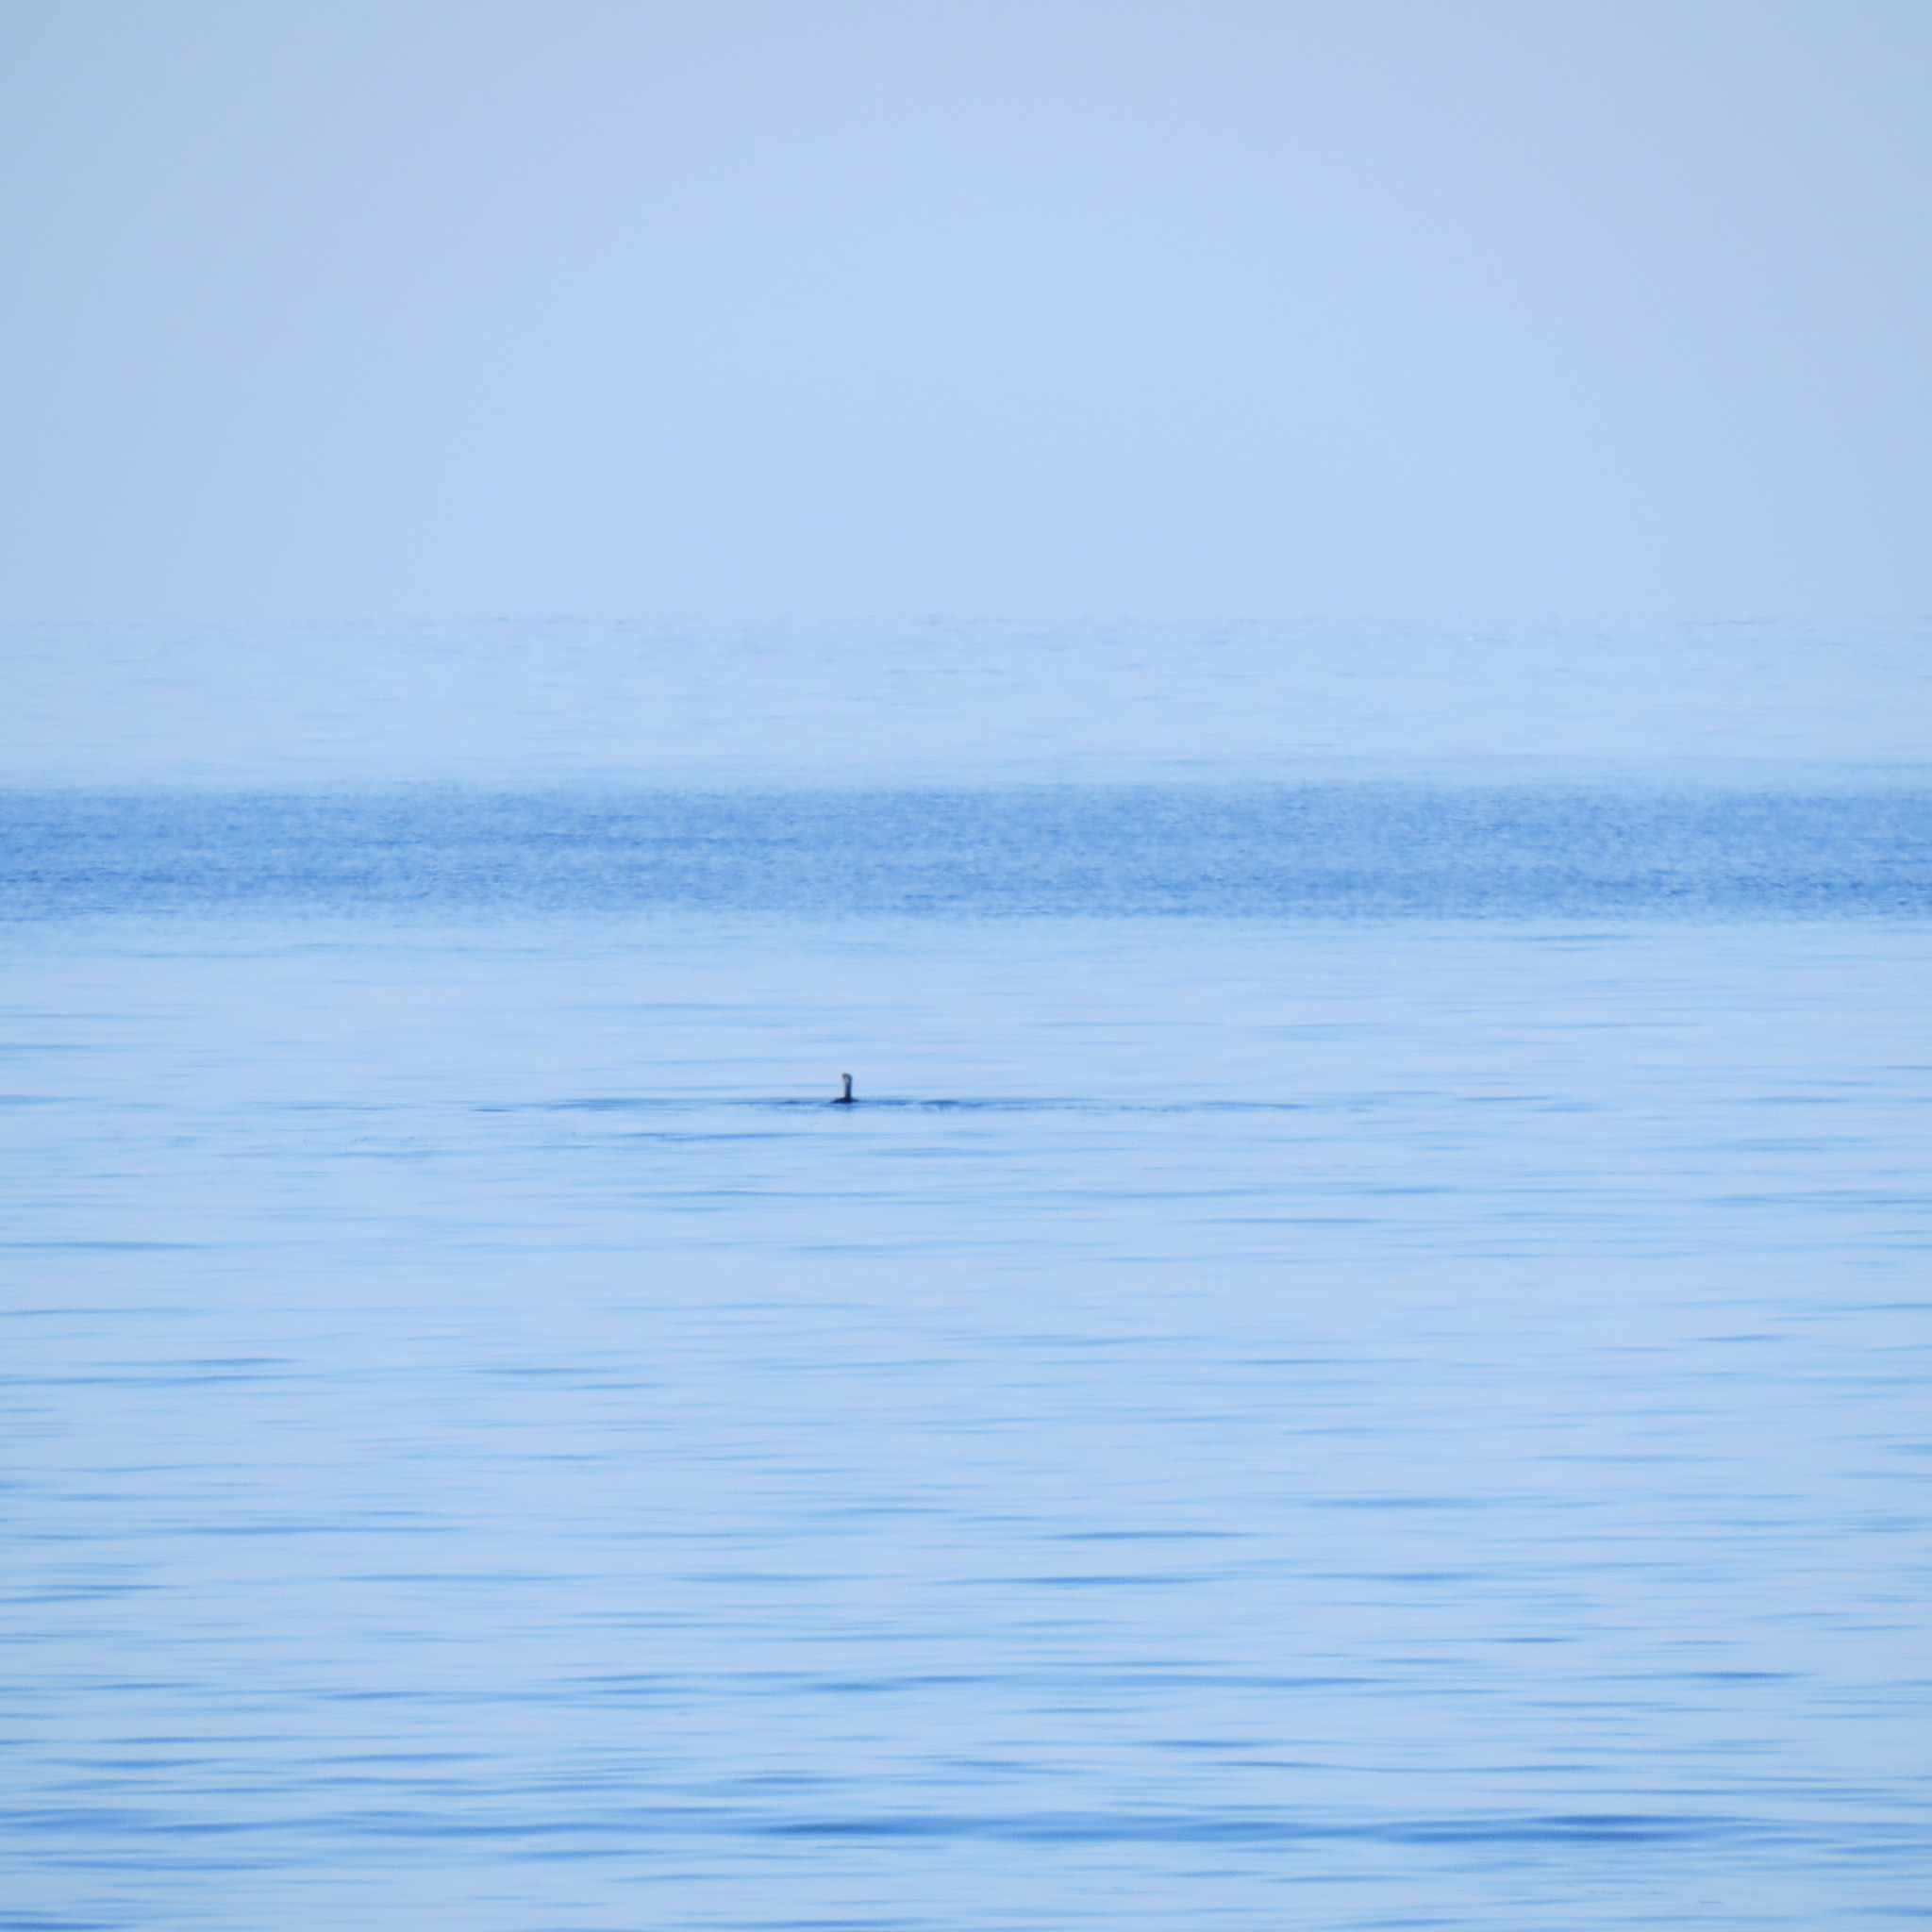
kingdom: Animalia
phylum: Chordata
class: Aves
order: Suliformes
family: Phalacrocoracidae
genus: Phalacrocorax
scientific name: Phalacrocorax carbo
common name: Great cormorant
